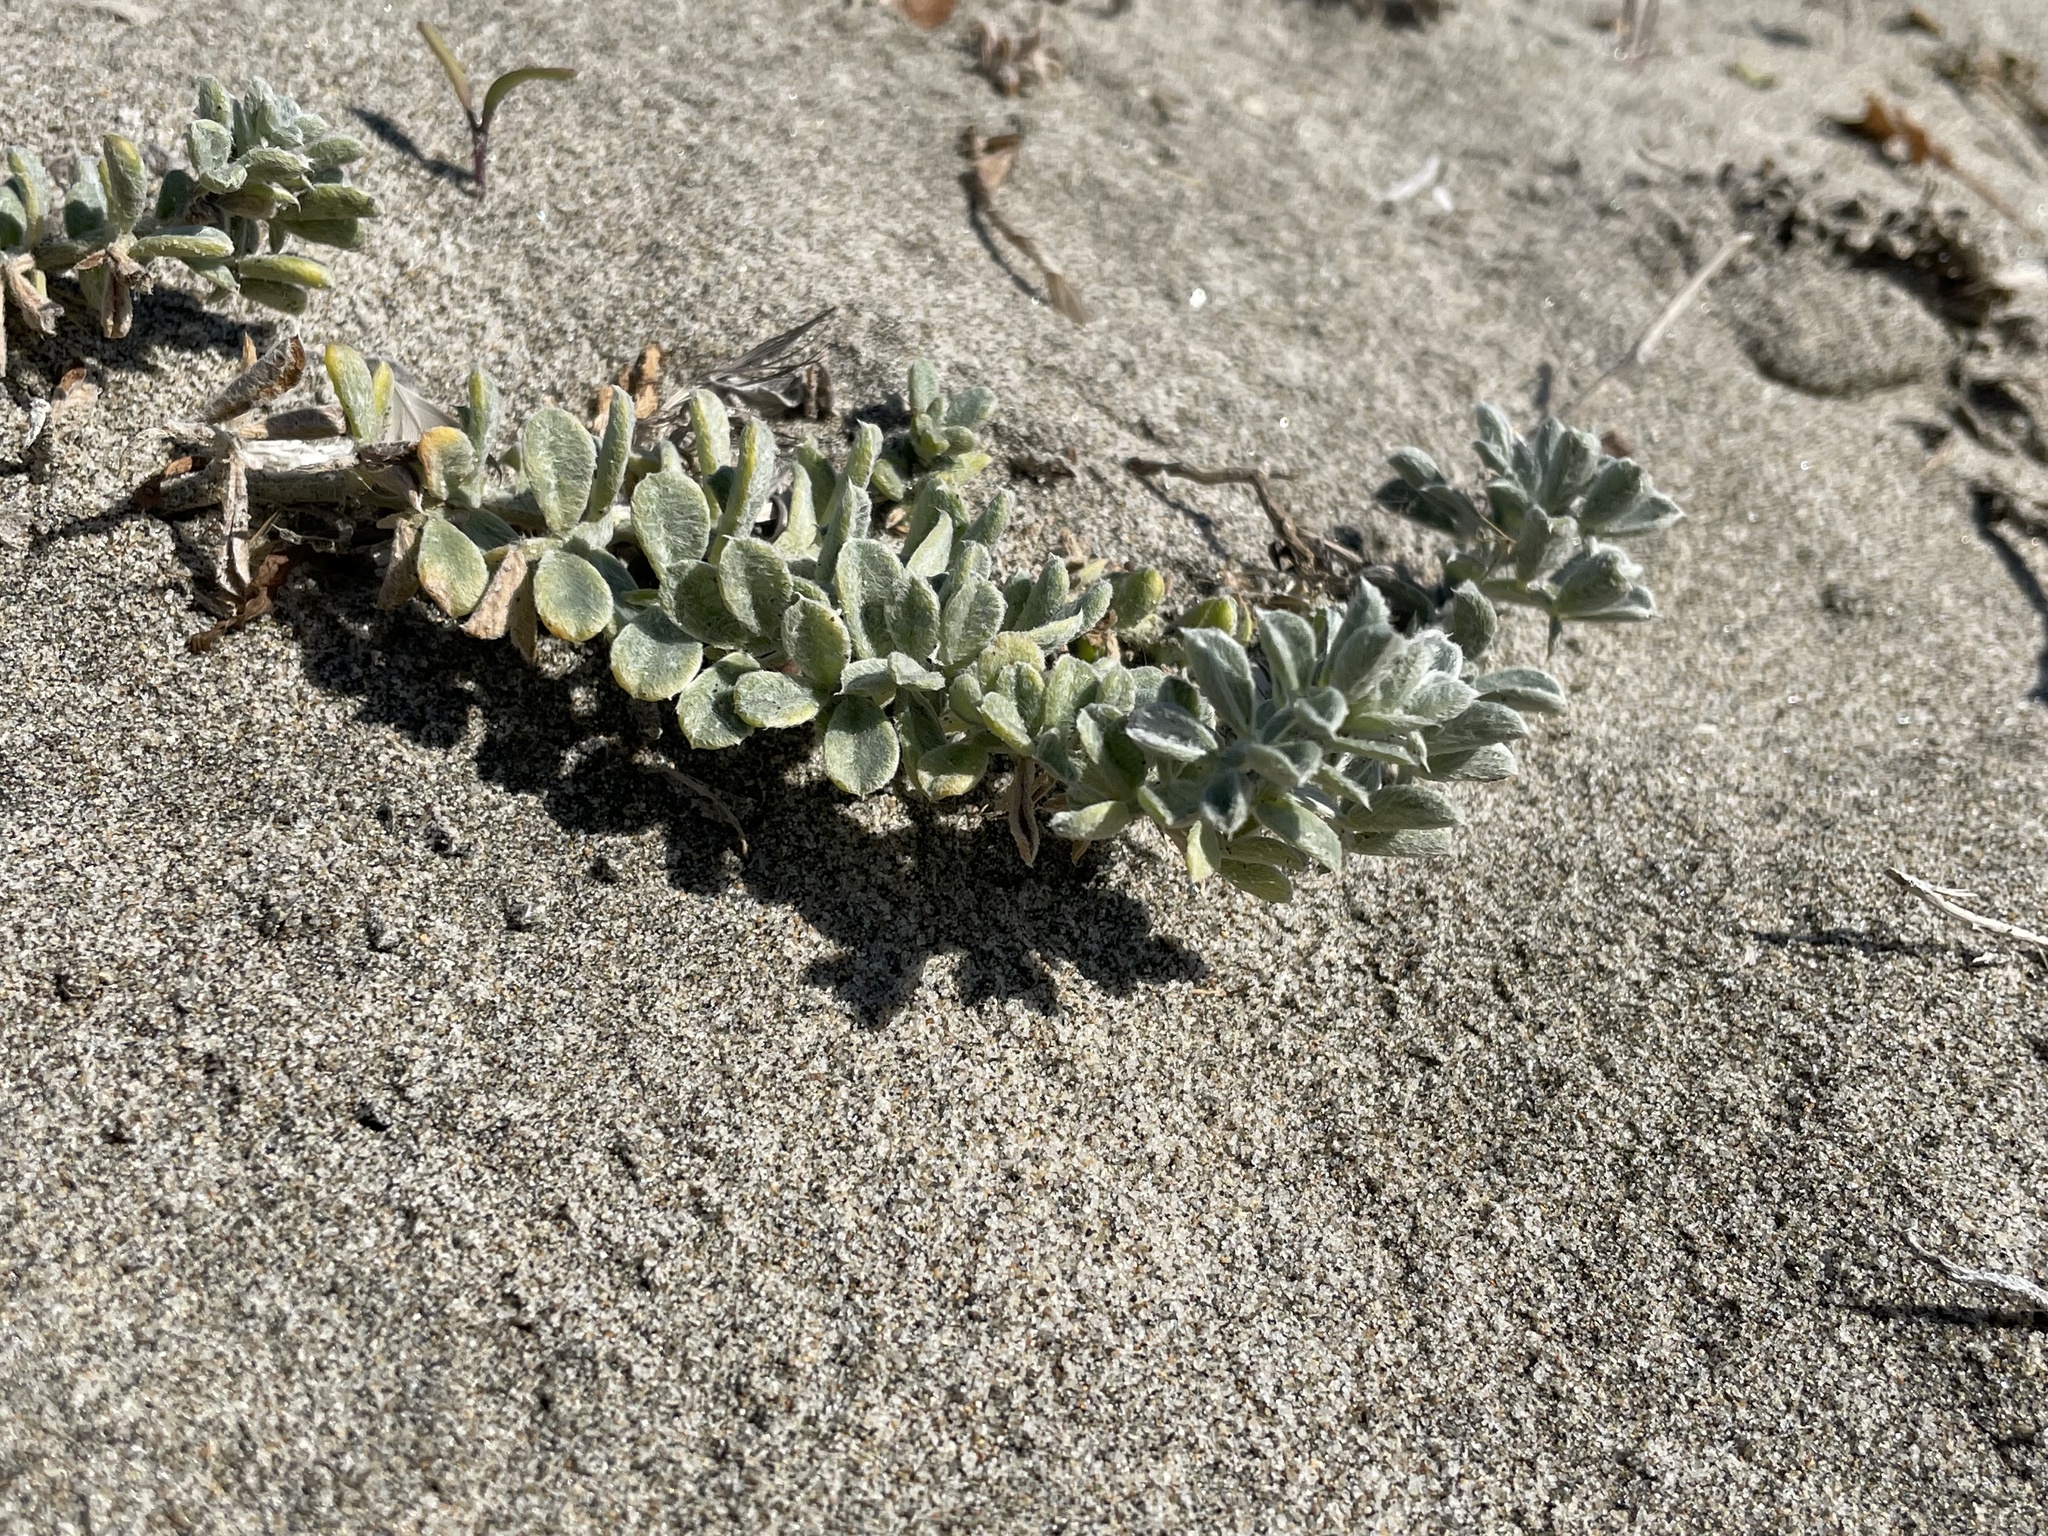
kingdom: Plantae
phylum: Tracheophyta
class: Magnoliopsida
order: Fabales
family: Fabaceae
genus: Lathyrus
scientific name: Lathyrus littoralis
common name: Dune sweet pea
